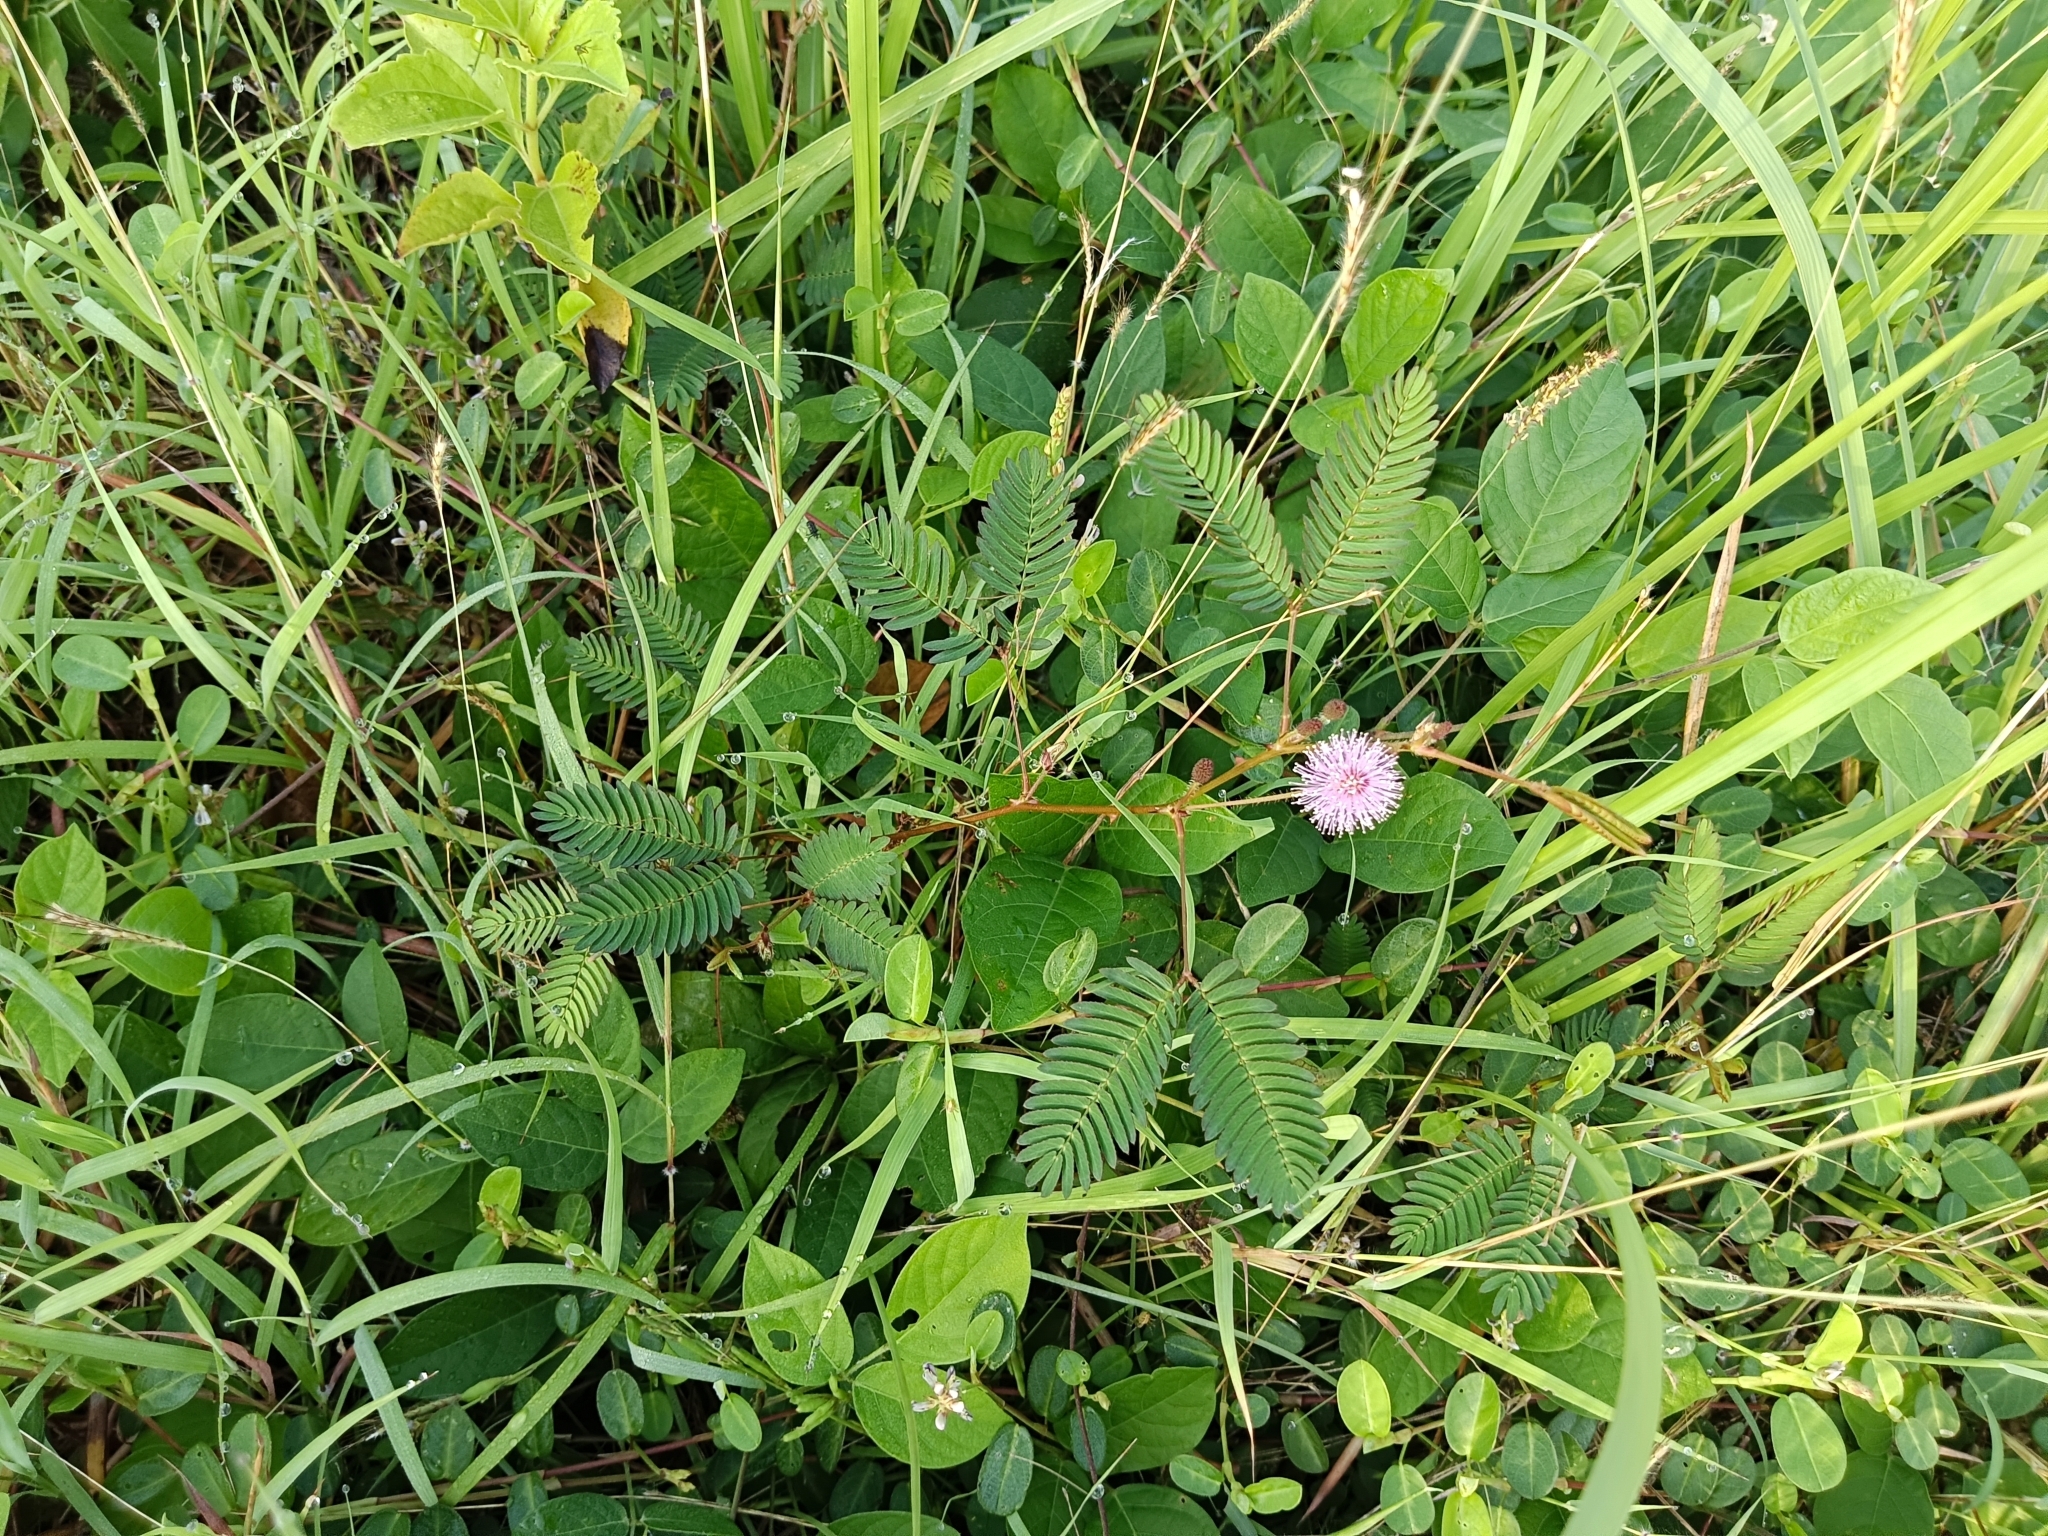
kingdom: Plantae
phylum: Tracheophyta
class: Magnoliopsida
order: Fabales
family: Fabaceae
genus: Mimosa
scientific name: Mimosa pudica
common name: Sensitive plant
